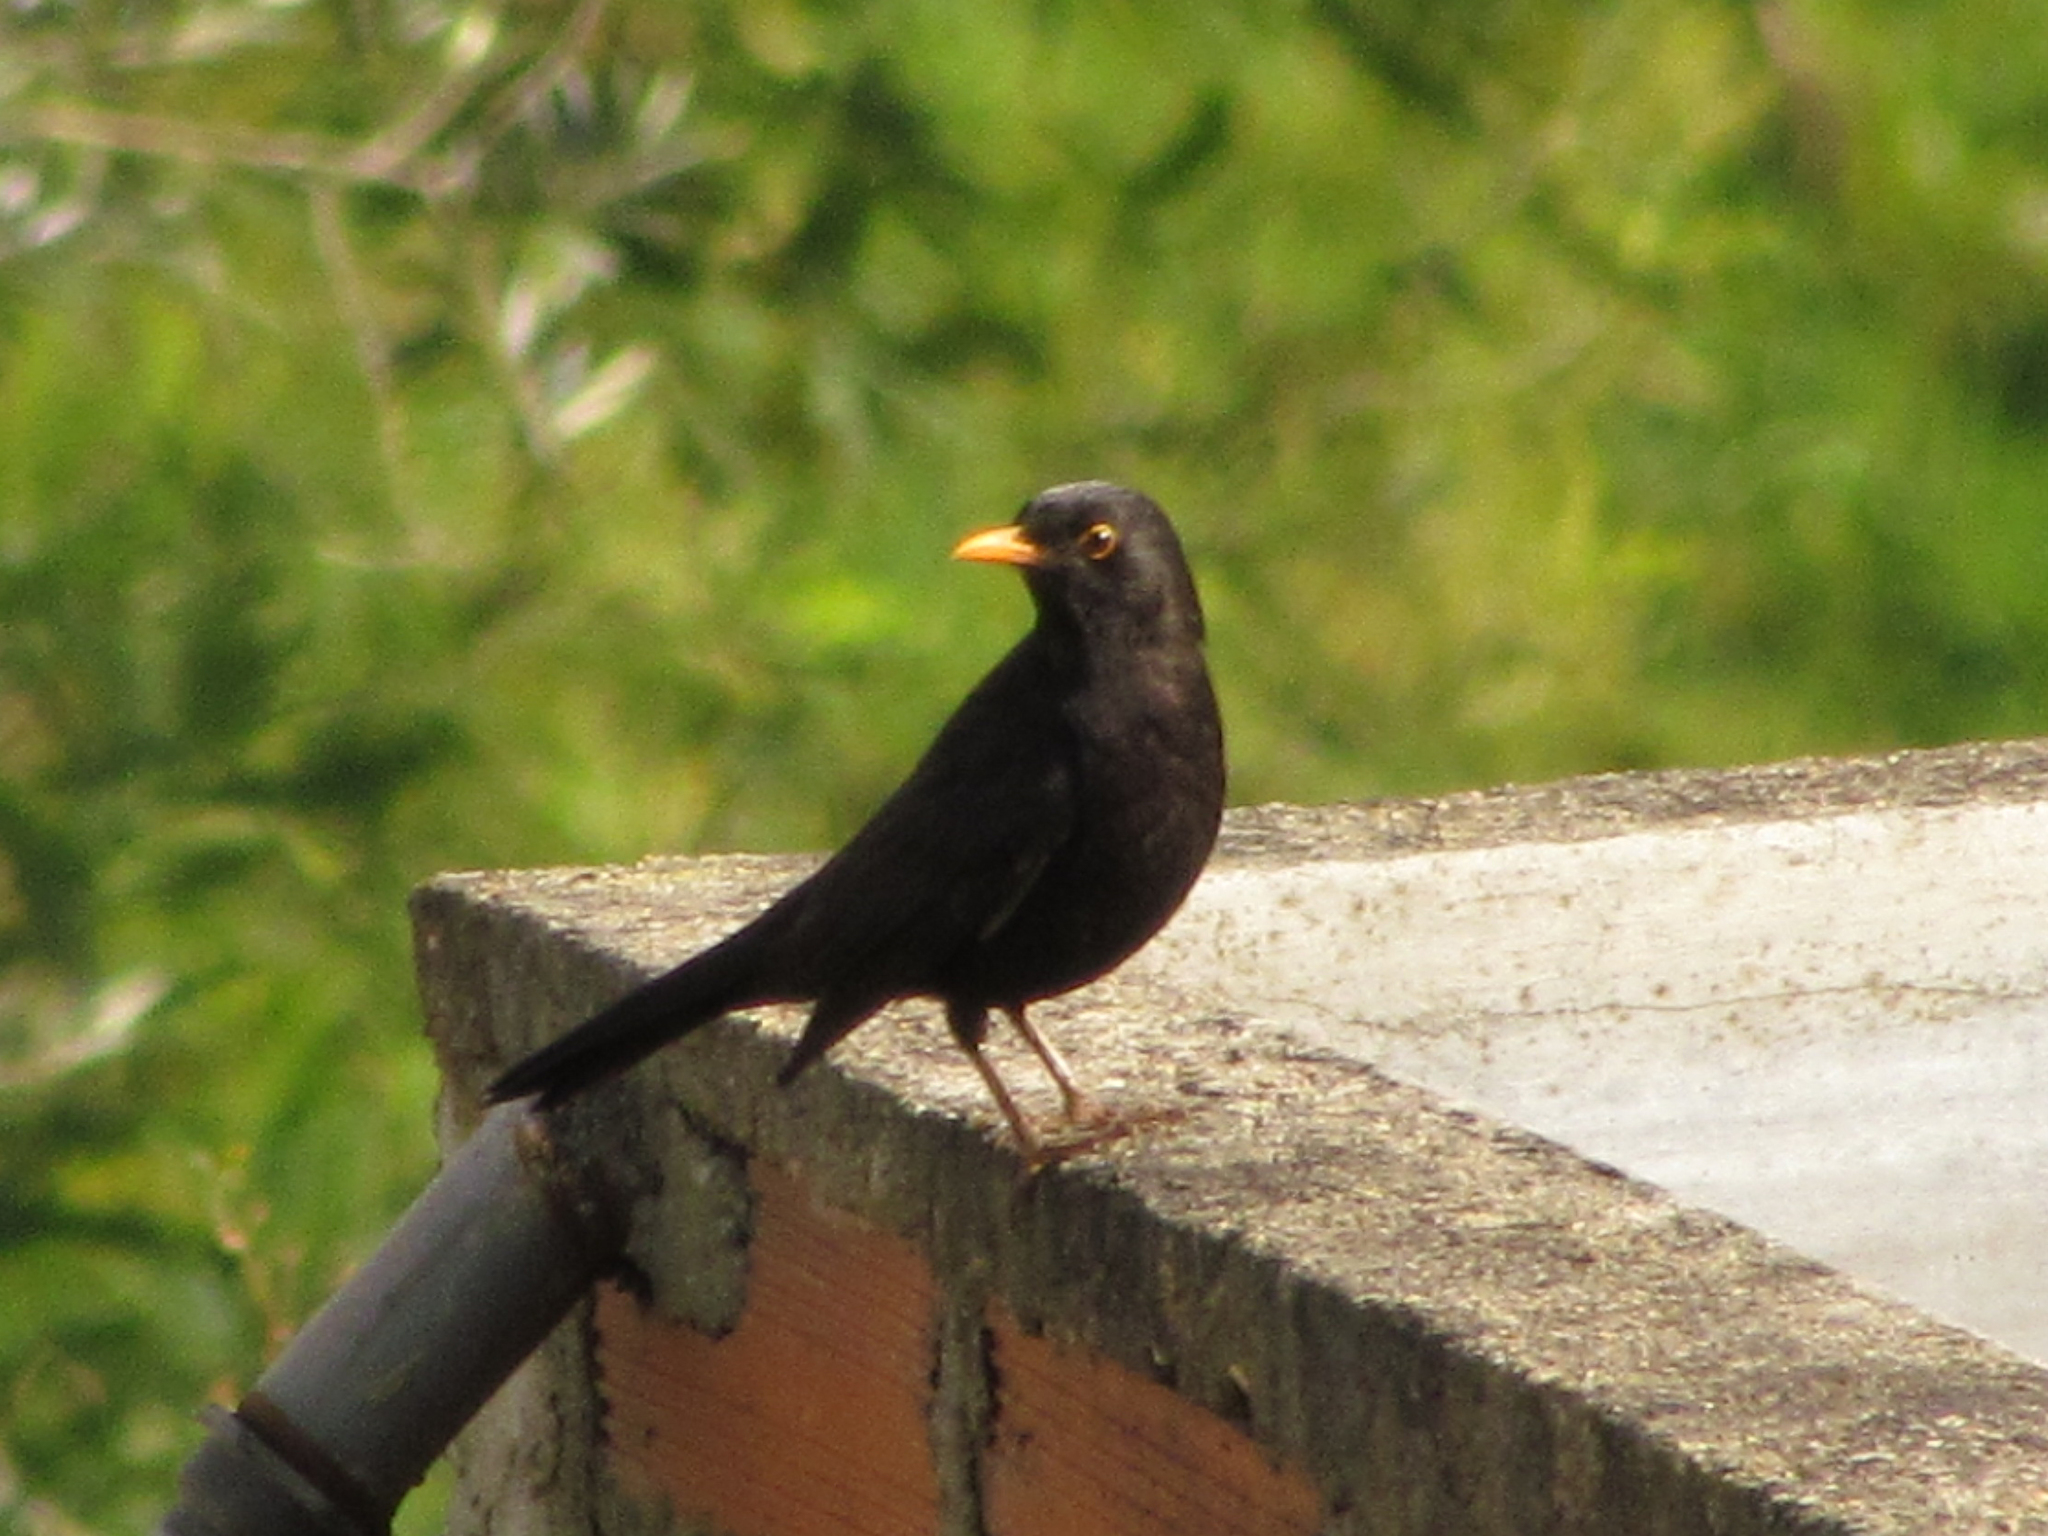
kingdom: Animalia
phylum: Chordata
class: Aves
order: Passeriformes
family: Turdidae
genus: Turdus
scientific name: Turdus merula
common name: Common blackbird
